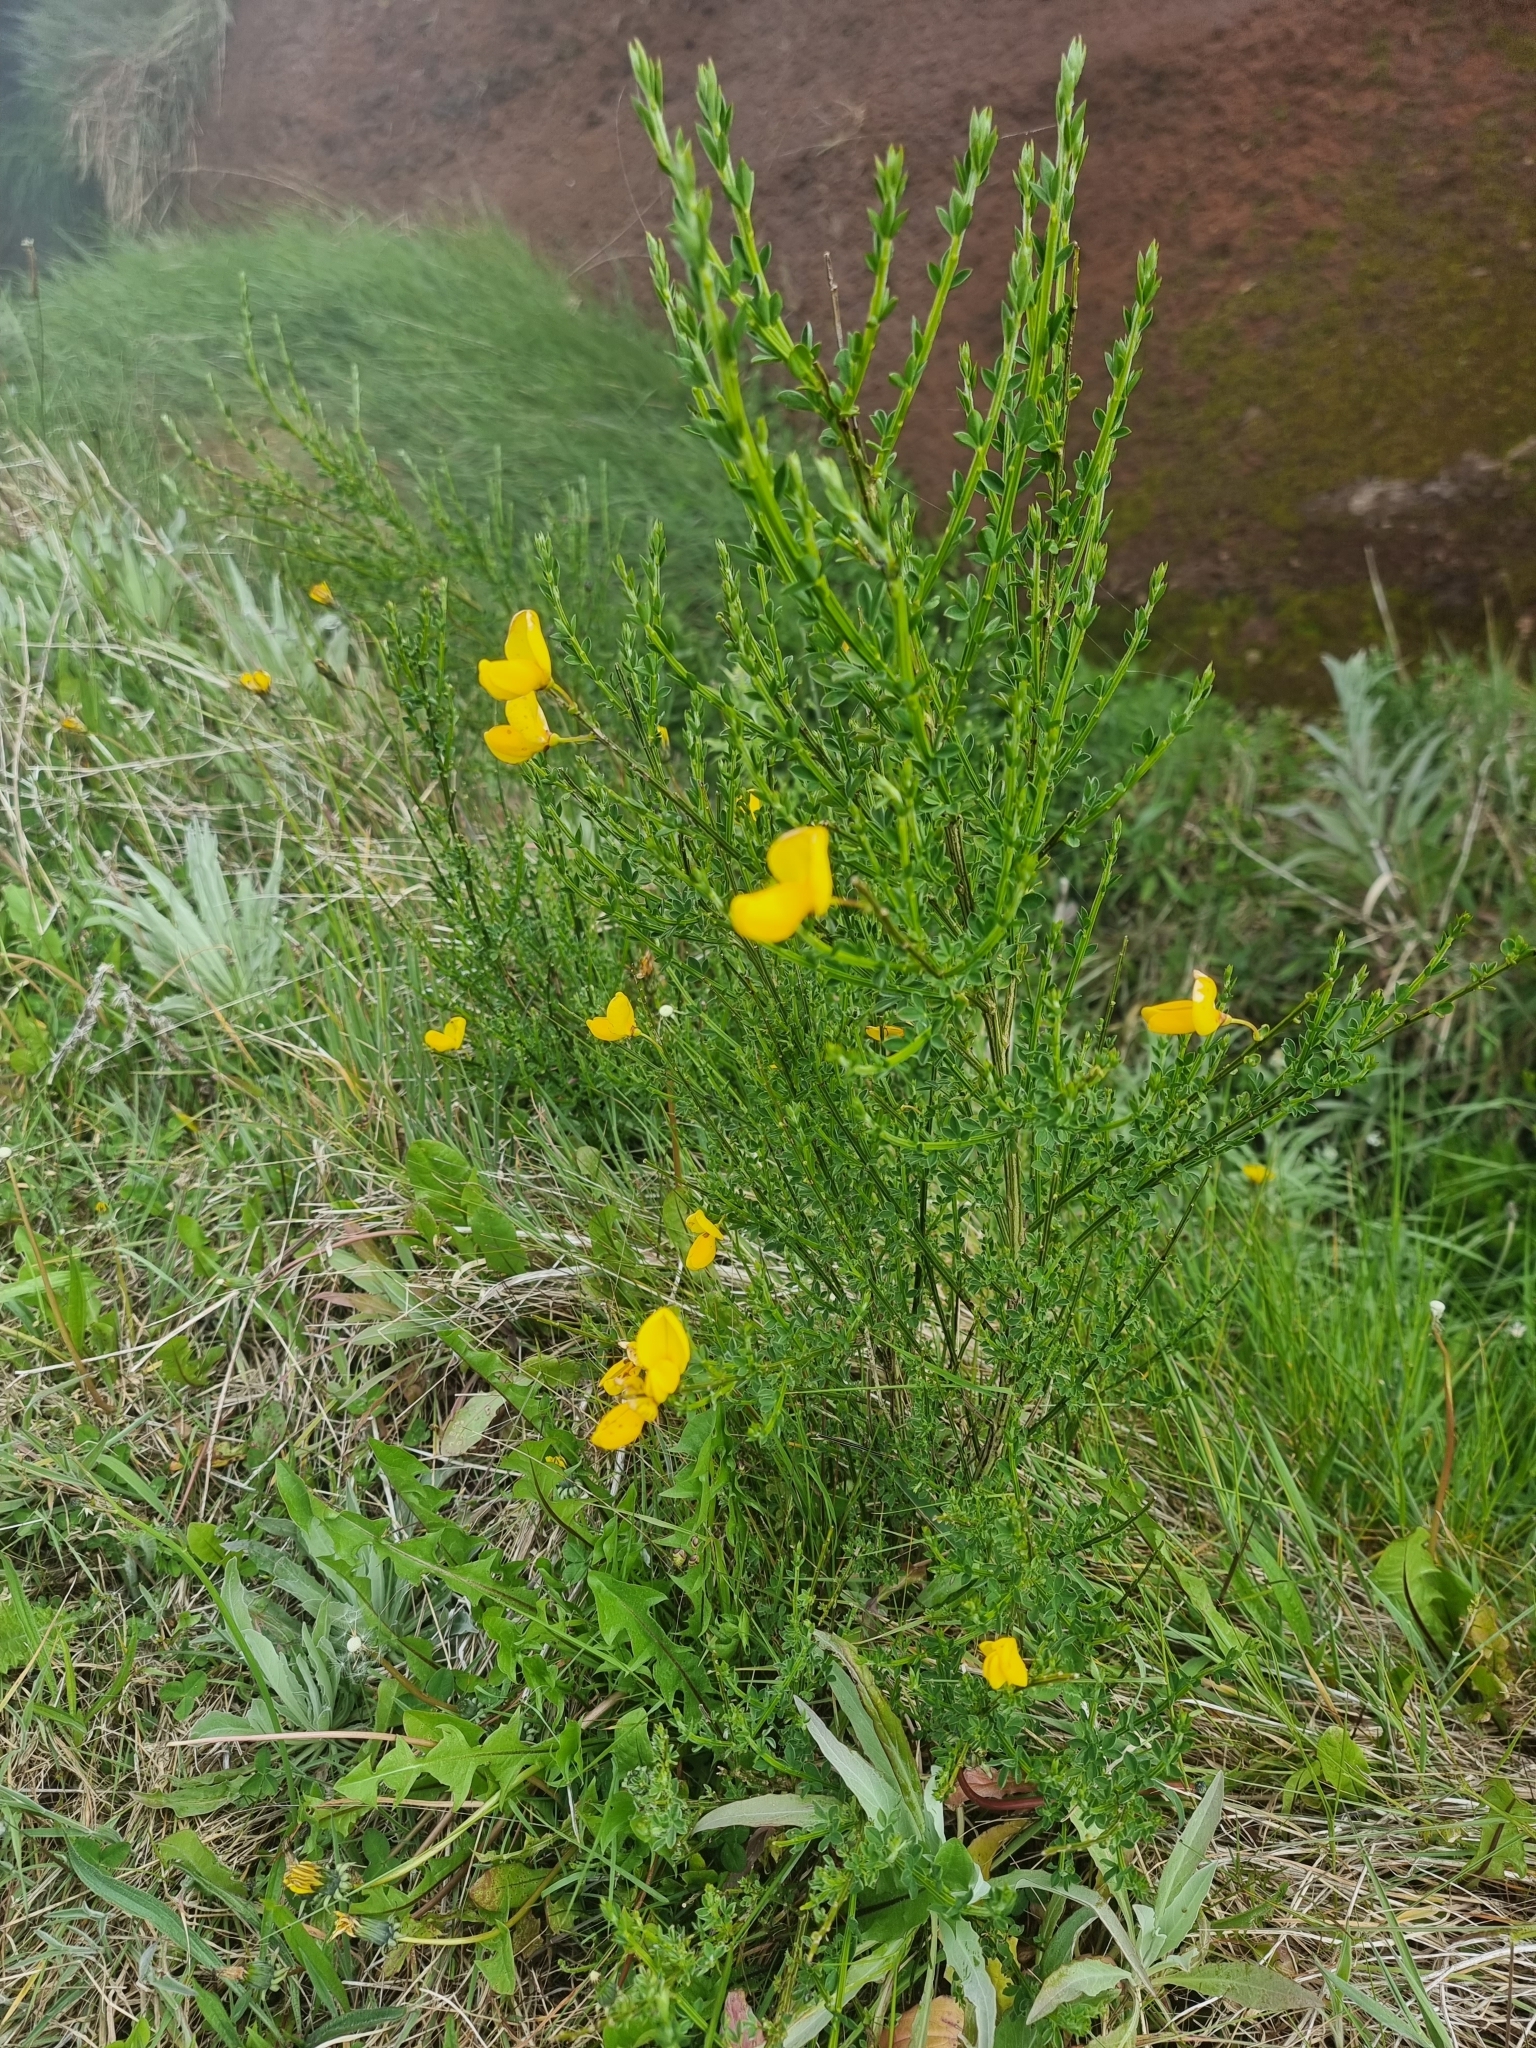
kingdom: Plantae
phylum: Tracheophyta
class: Magnoliopsida
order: Fabales
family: Fabaceae
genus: Cytisus
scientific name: Cytisus scoparius
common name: Scotch broom
